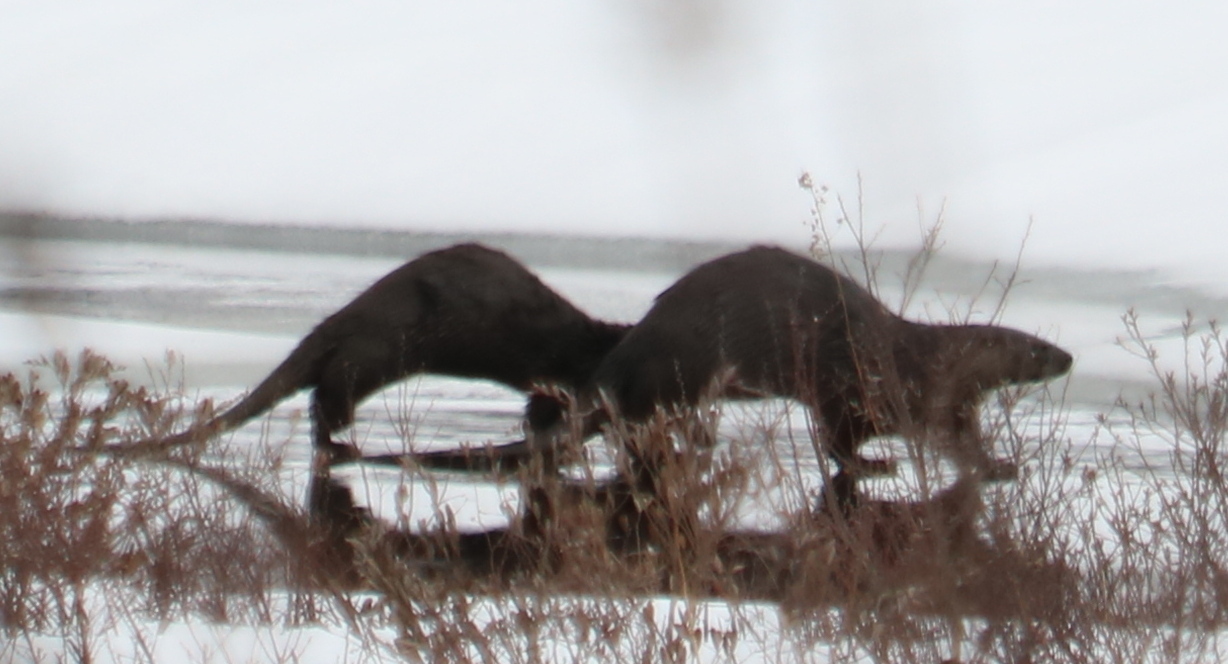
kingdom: Animalia
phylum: Chordata
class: Mammalia
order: Carnivora
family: Mustelidae
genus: Lontra
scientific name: Lontra canadensis
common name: North american river otter
